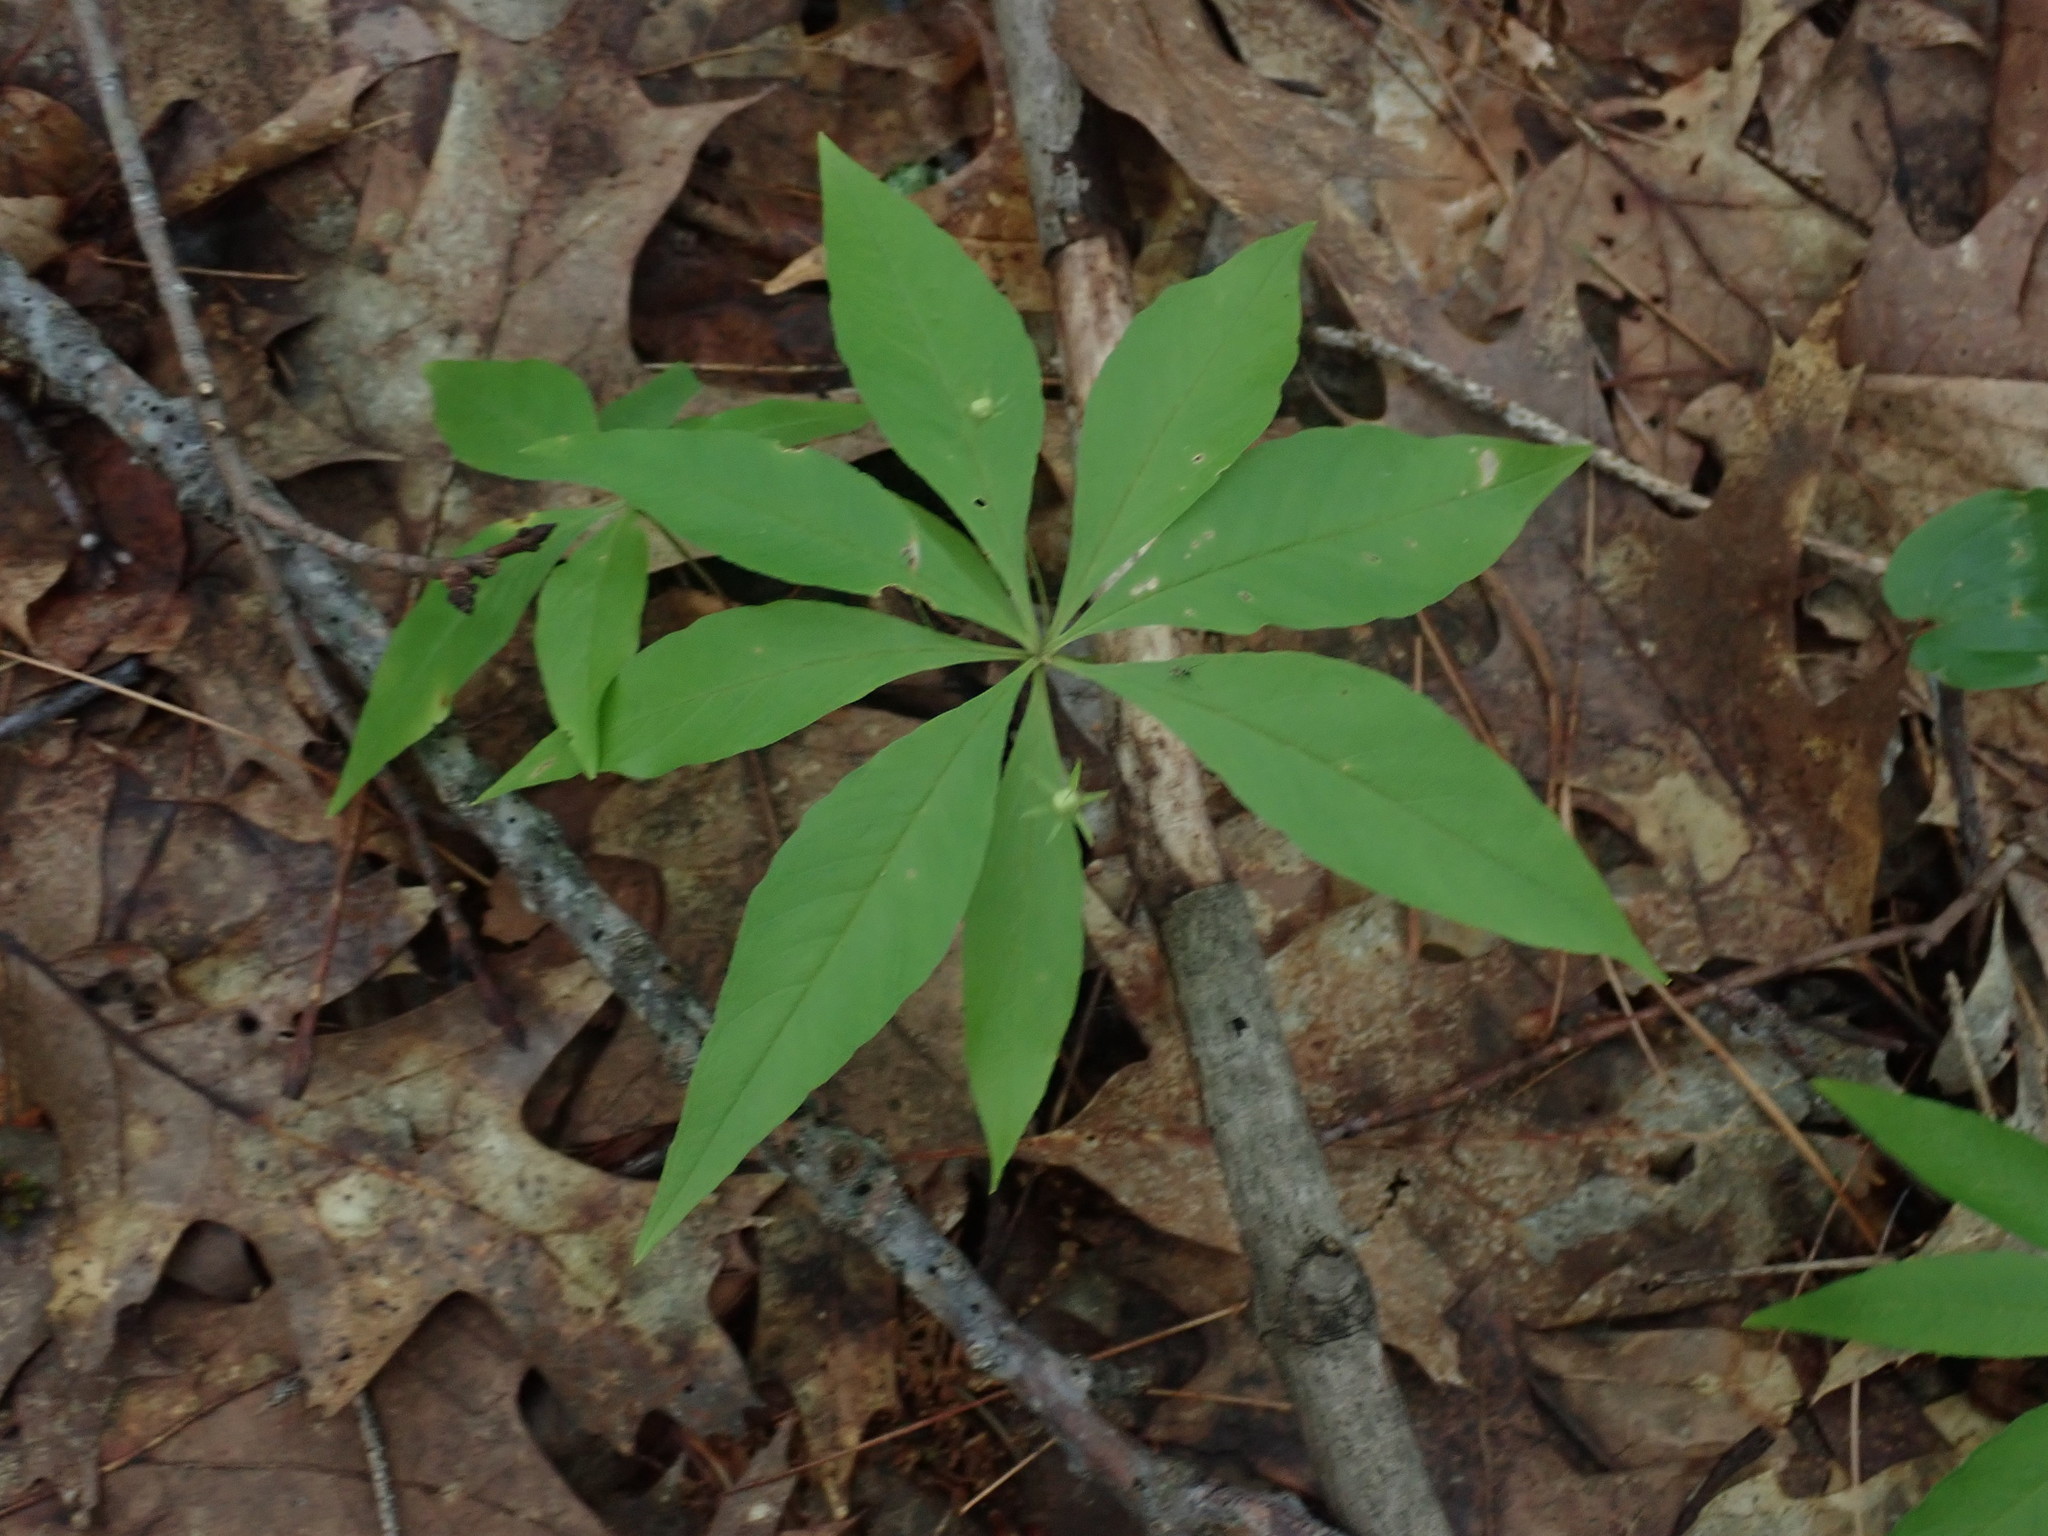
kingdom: Plantae
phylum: Tracheophyta
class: Magnoliopsida
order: Ericales
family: Primulaceae
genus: Lysimachia
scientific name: Lysimachia borealis
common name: American starflower
